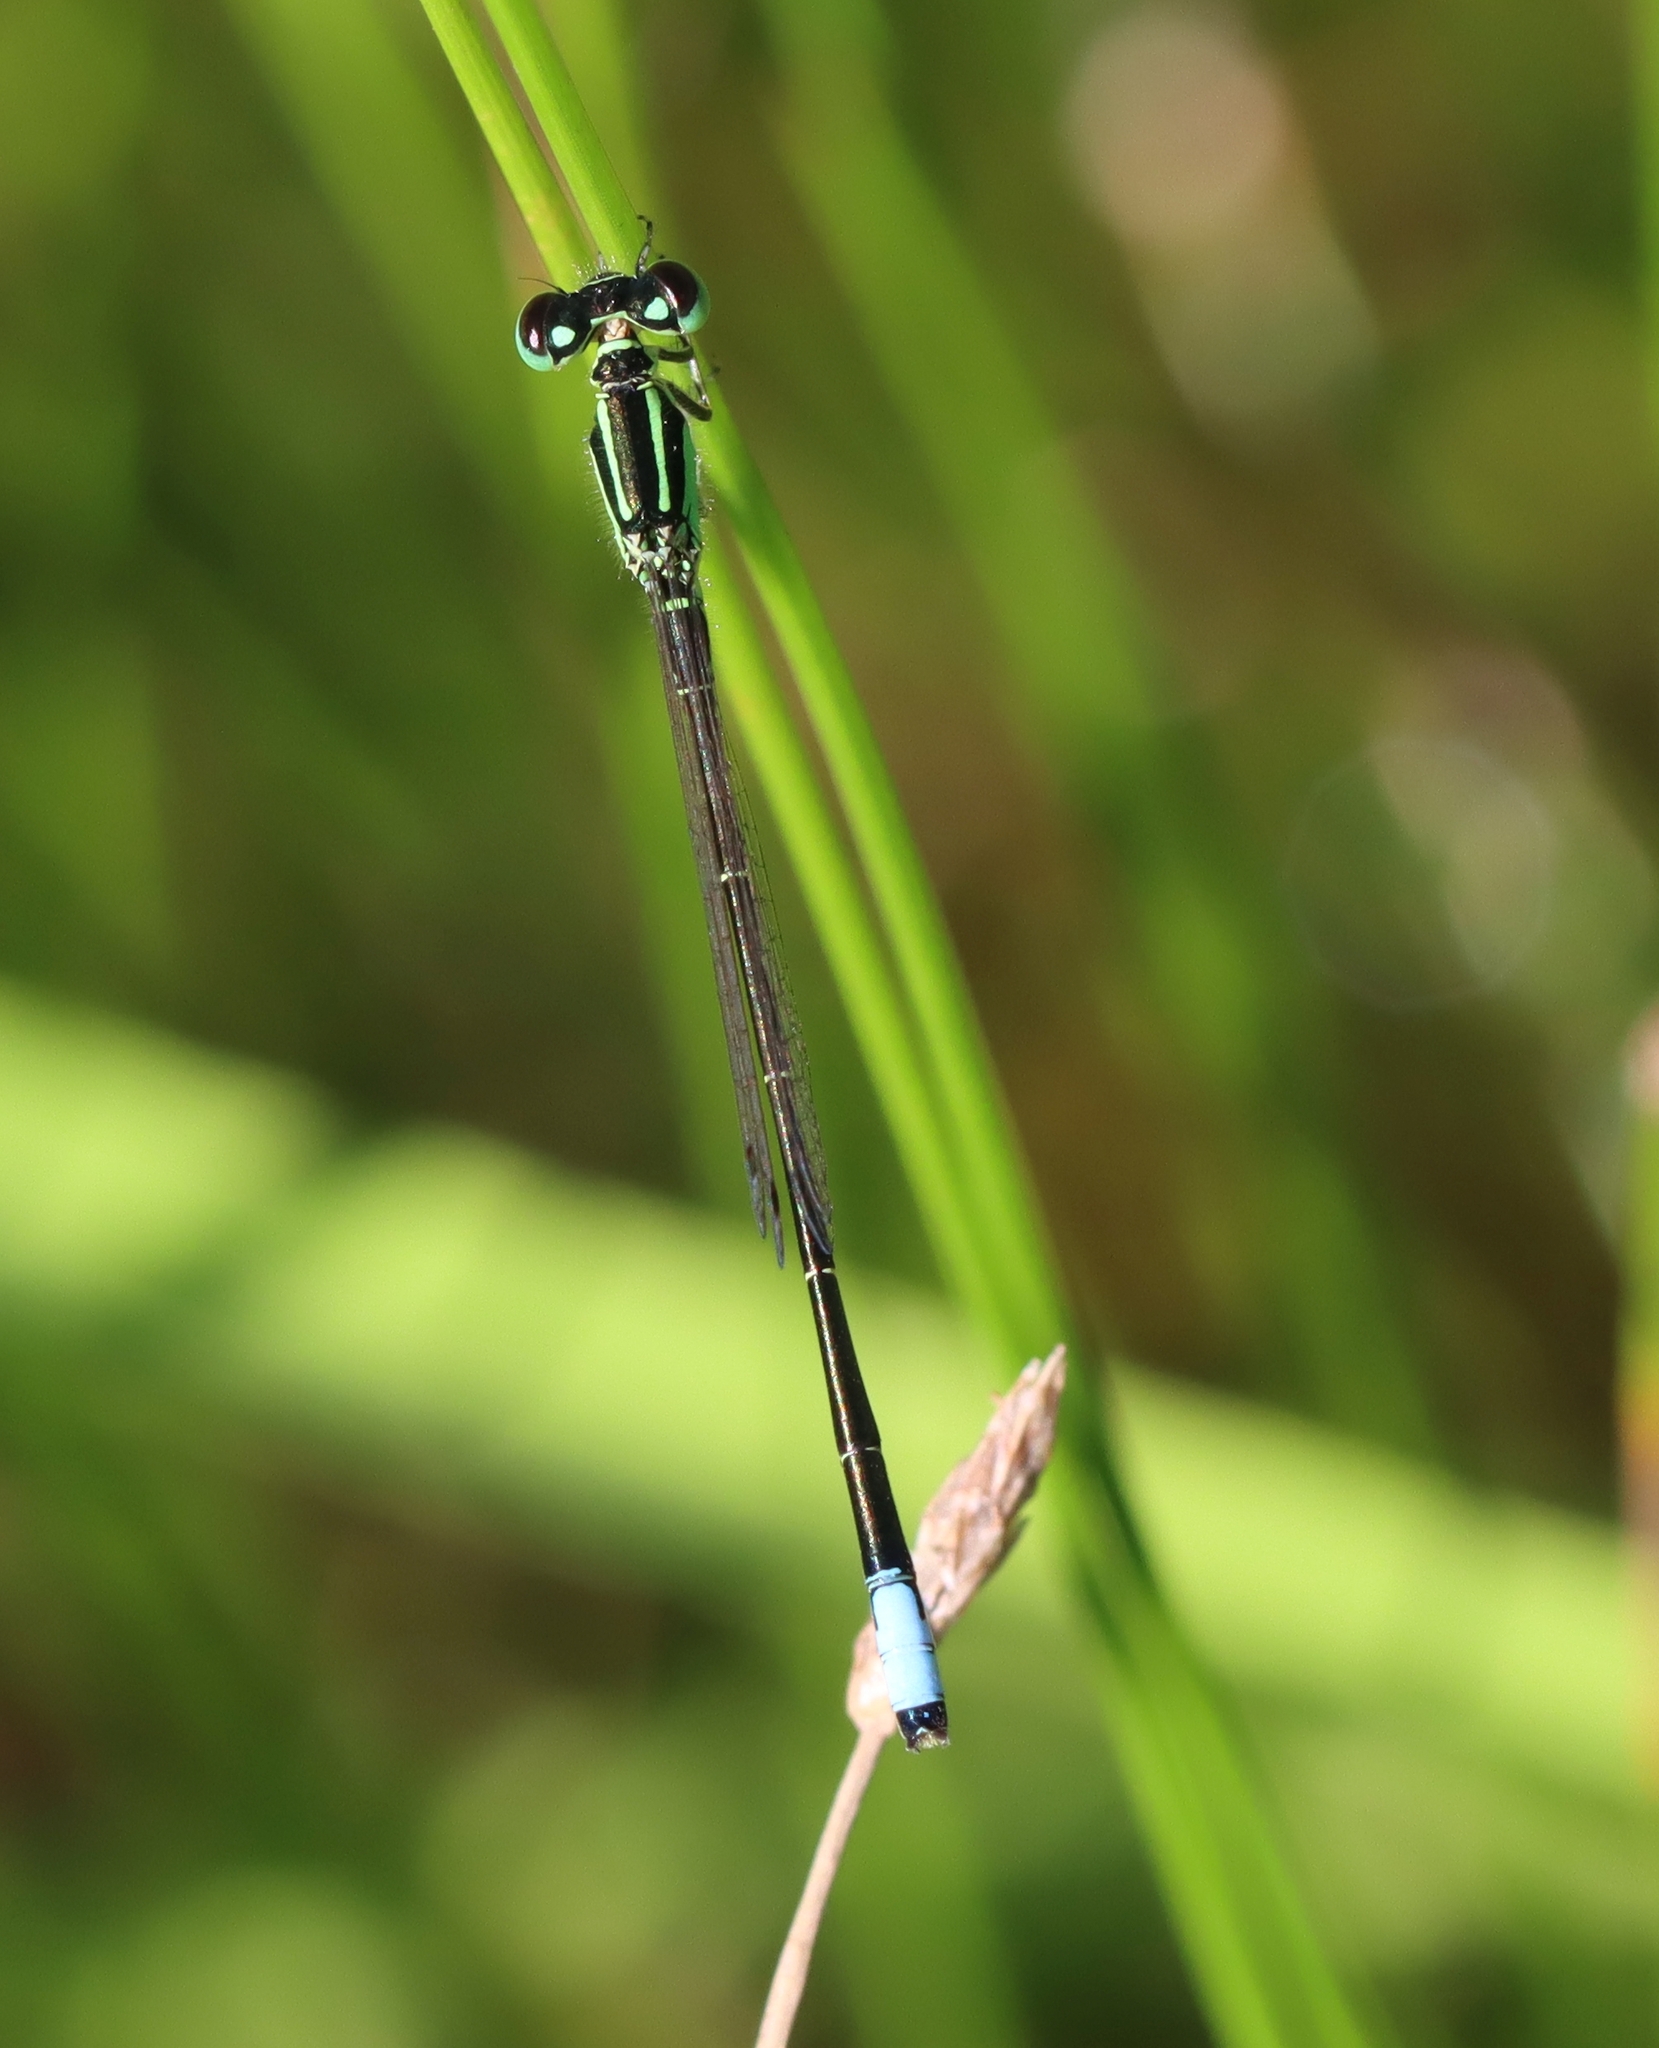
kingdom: Animalia
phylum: Arthropoda
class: Insecta
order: Odonata
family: Coenagrionidae
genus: Ischnura
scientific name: Ischnura verticalis
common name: Eastern forktail
